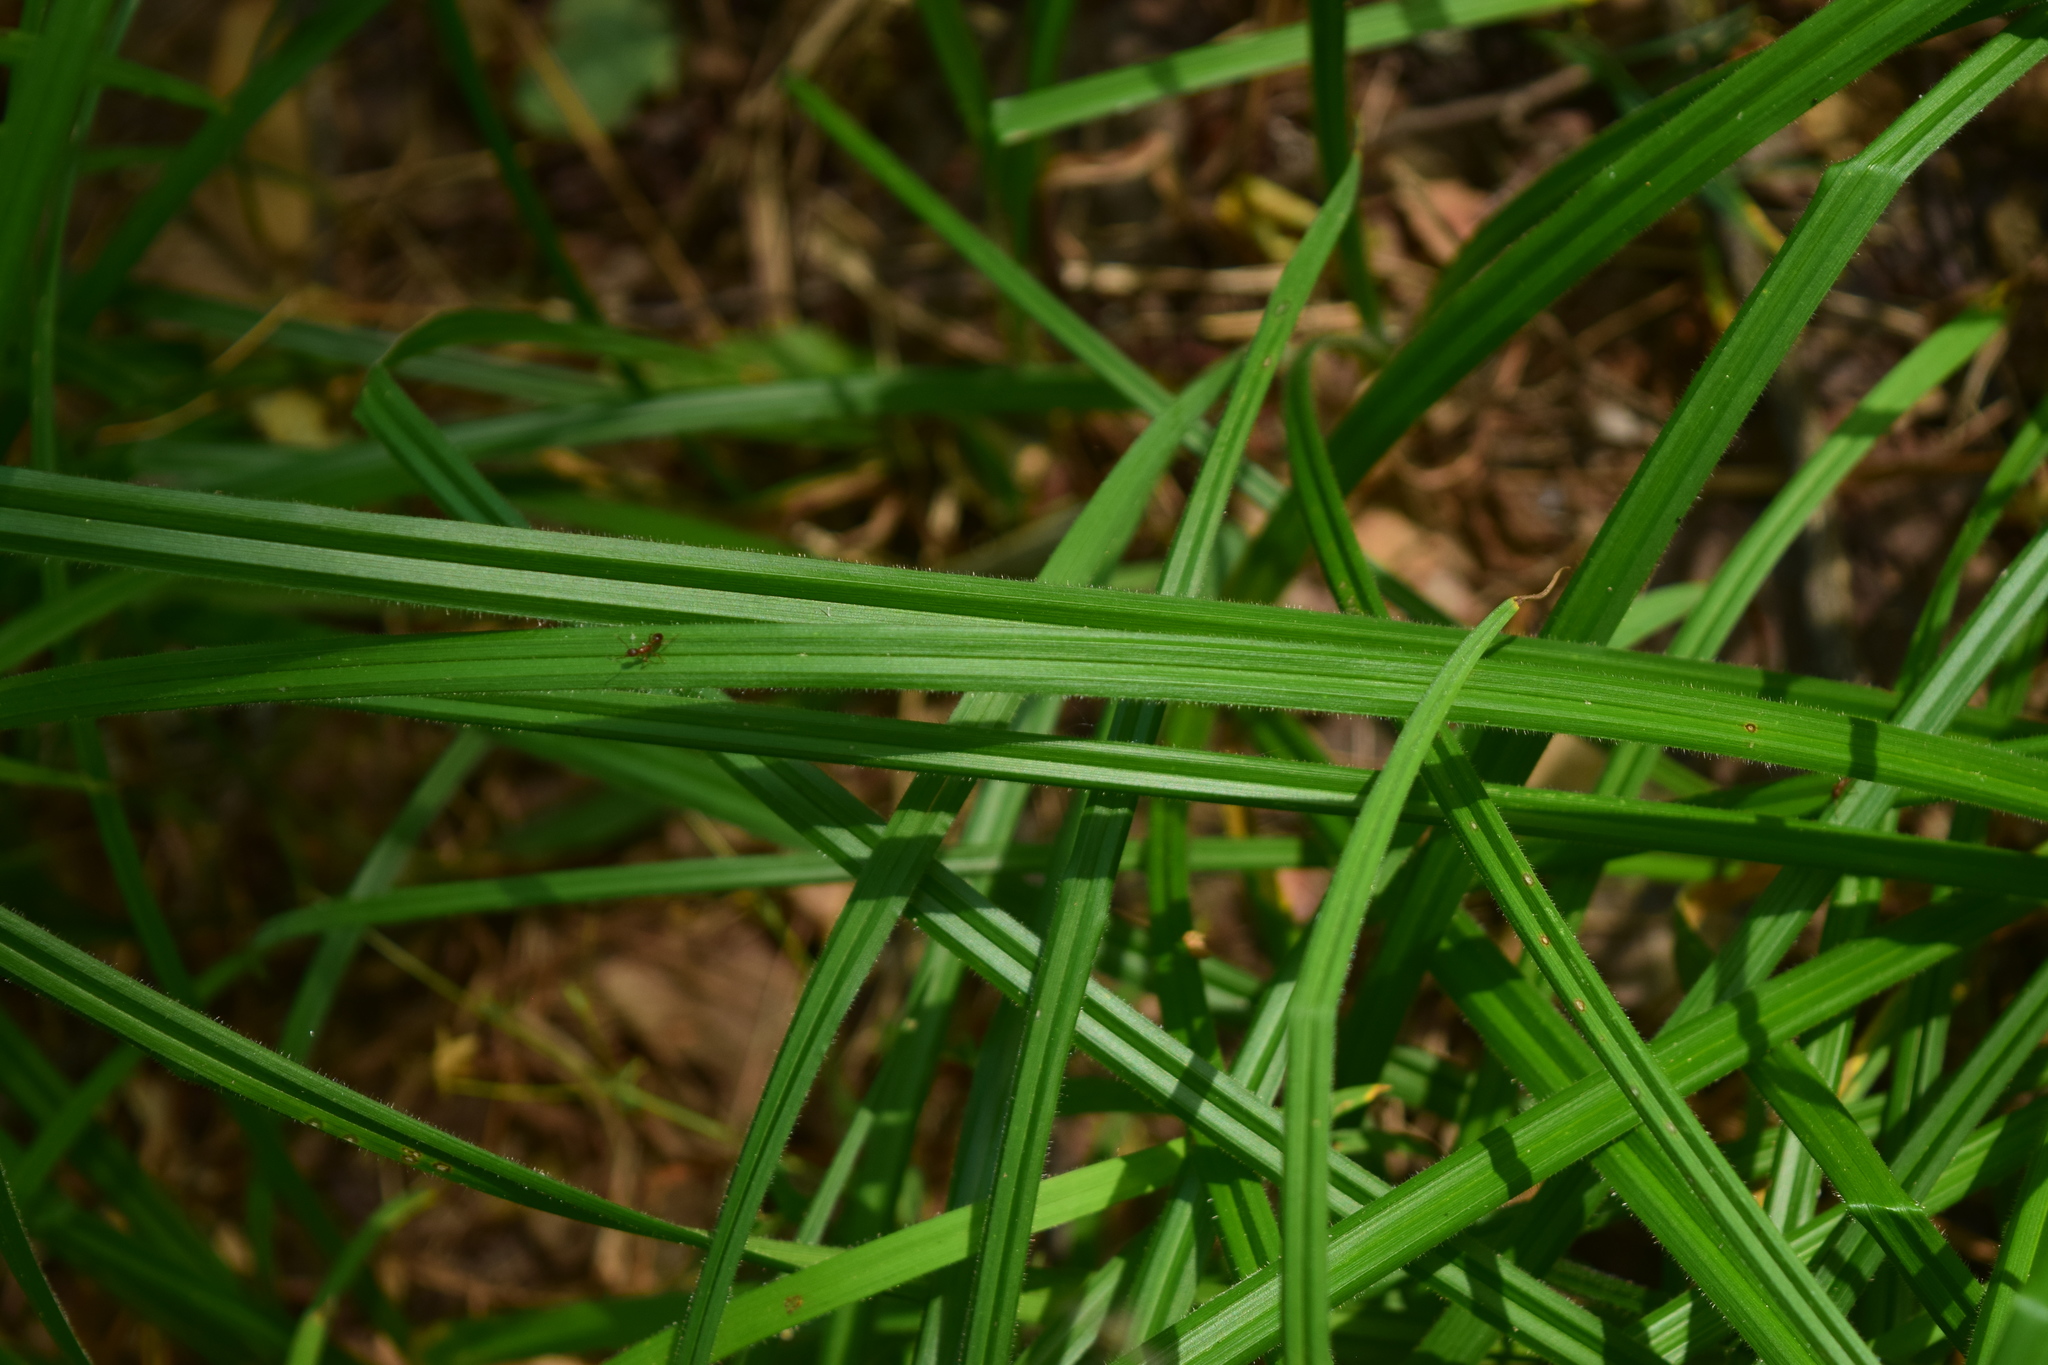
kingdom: Plantae
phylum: Tracheophyta
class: Liliopsida
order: Poales
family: Cyperaceae
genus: Carex
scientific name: Carex pilosa
